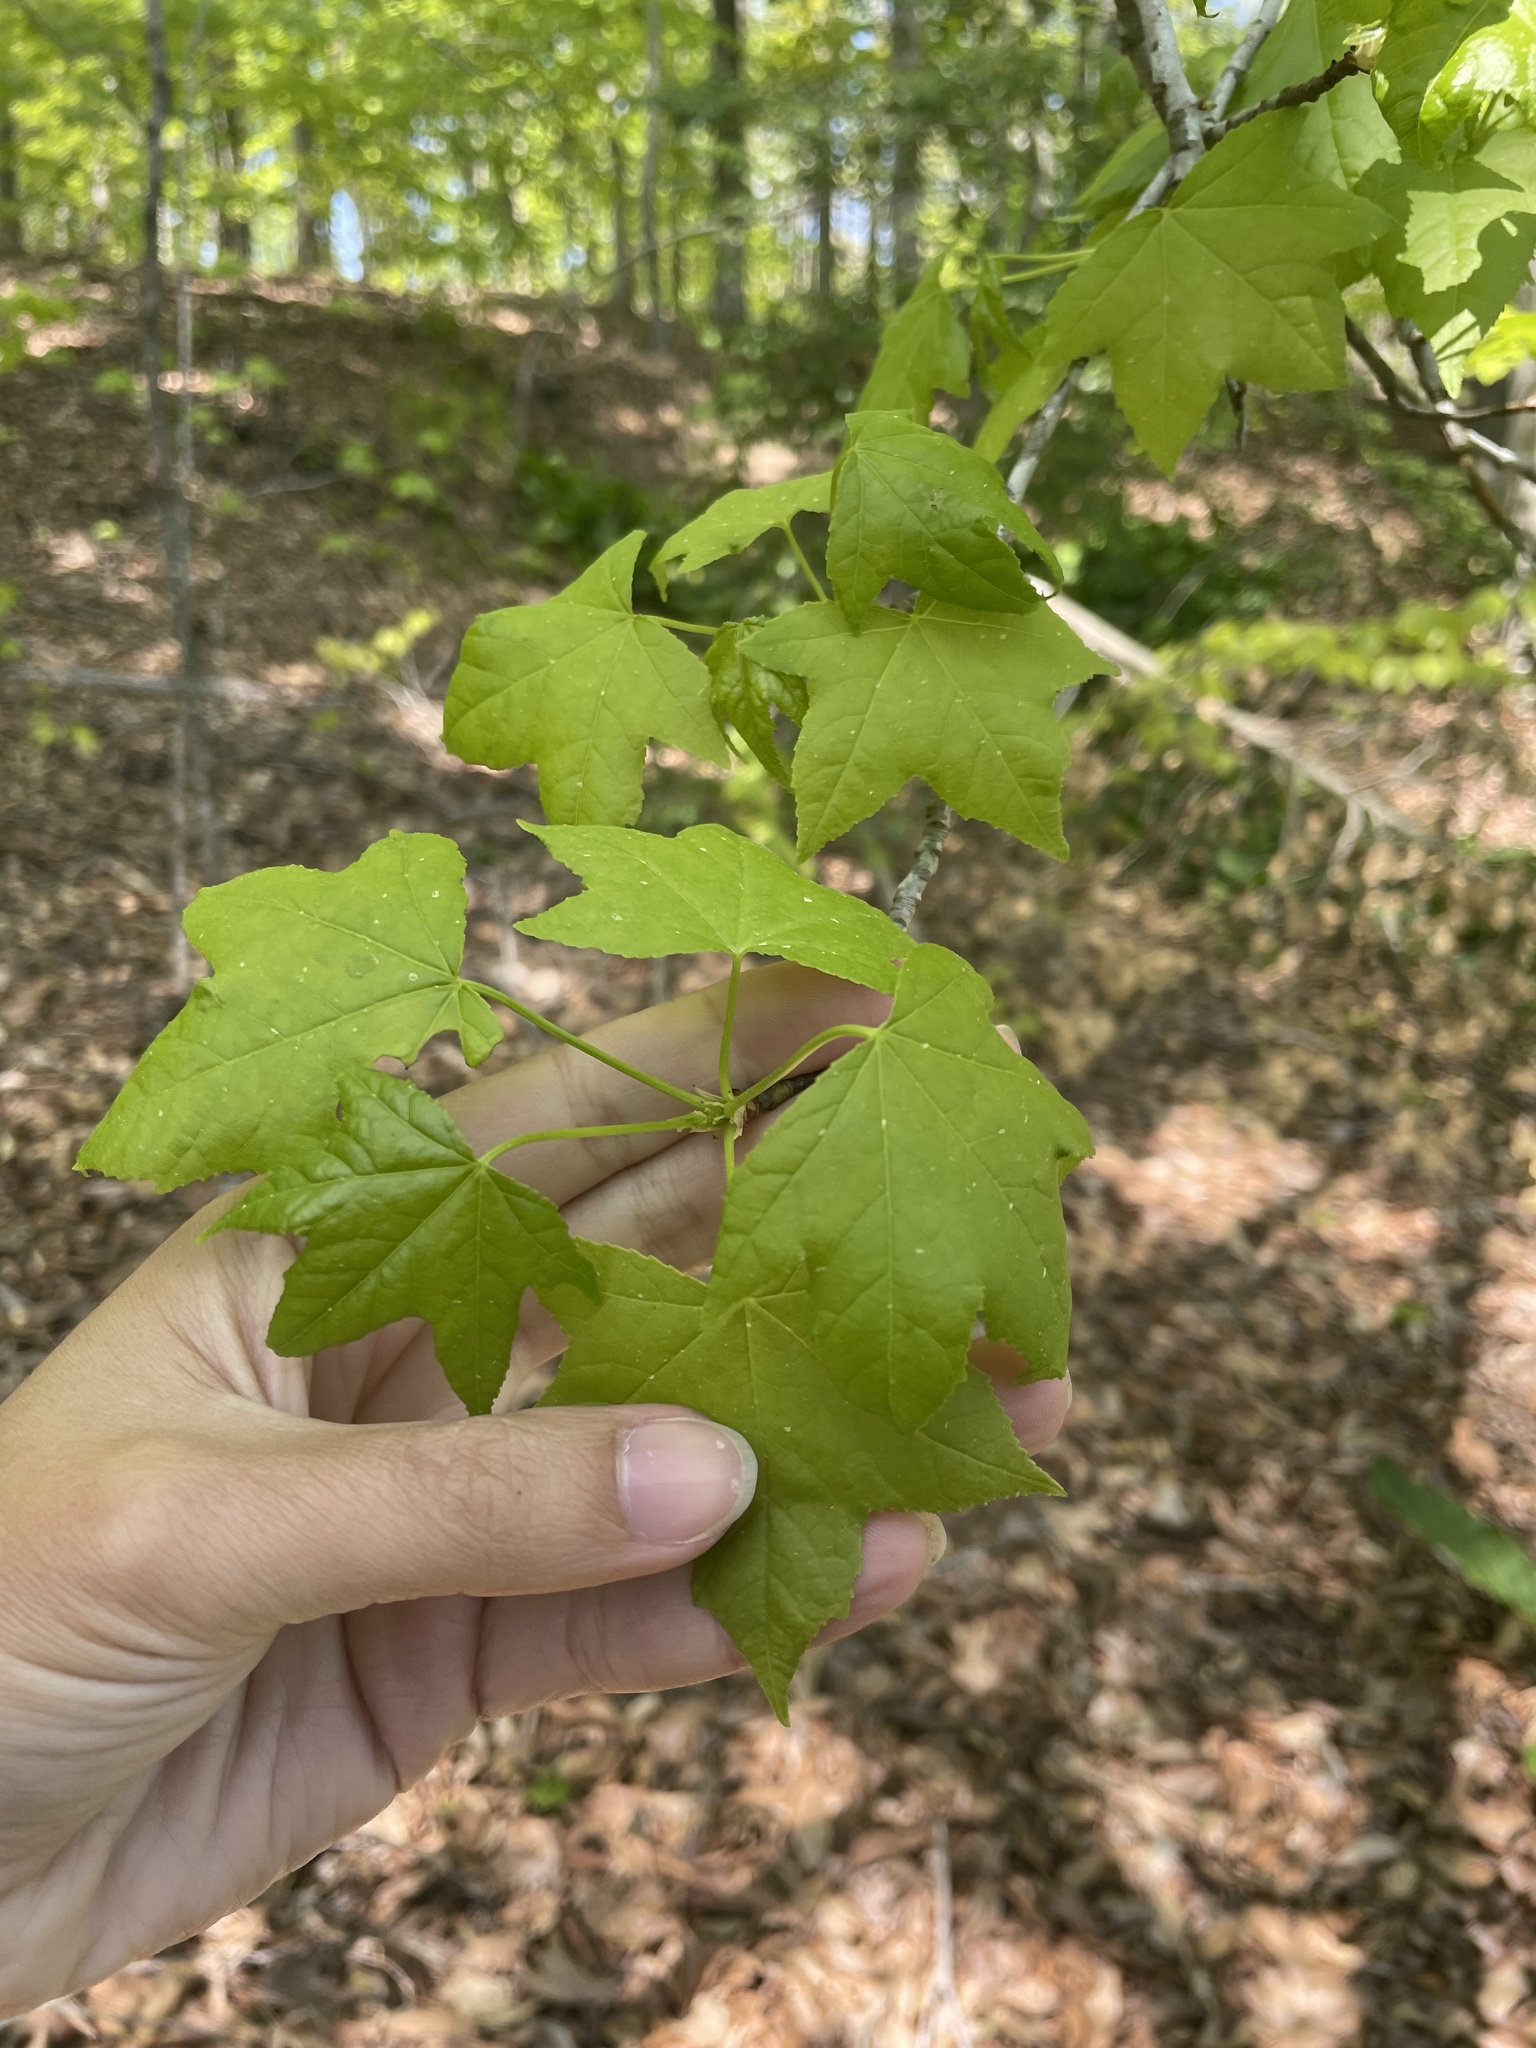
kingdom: Plantae
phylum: Tracheophyta
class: Magnoliopsida
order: Saxifragales
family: Altingiaceae
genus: Liquidambar
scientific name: Liquidambar styraciflua
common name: Sweet gum
